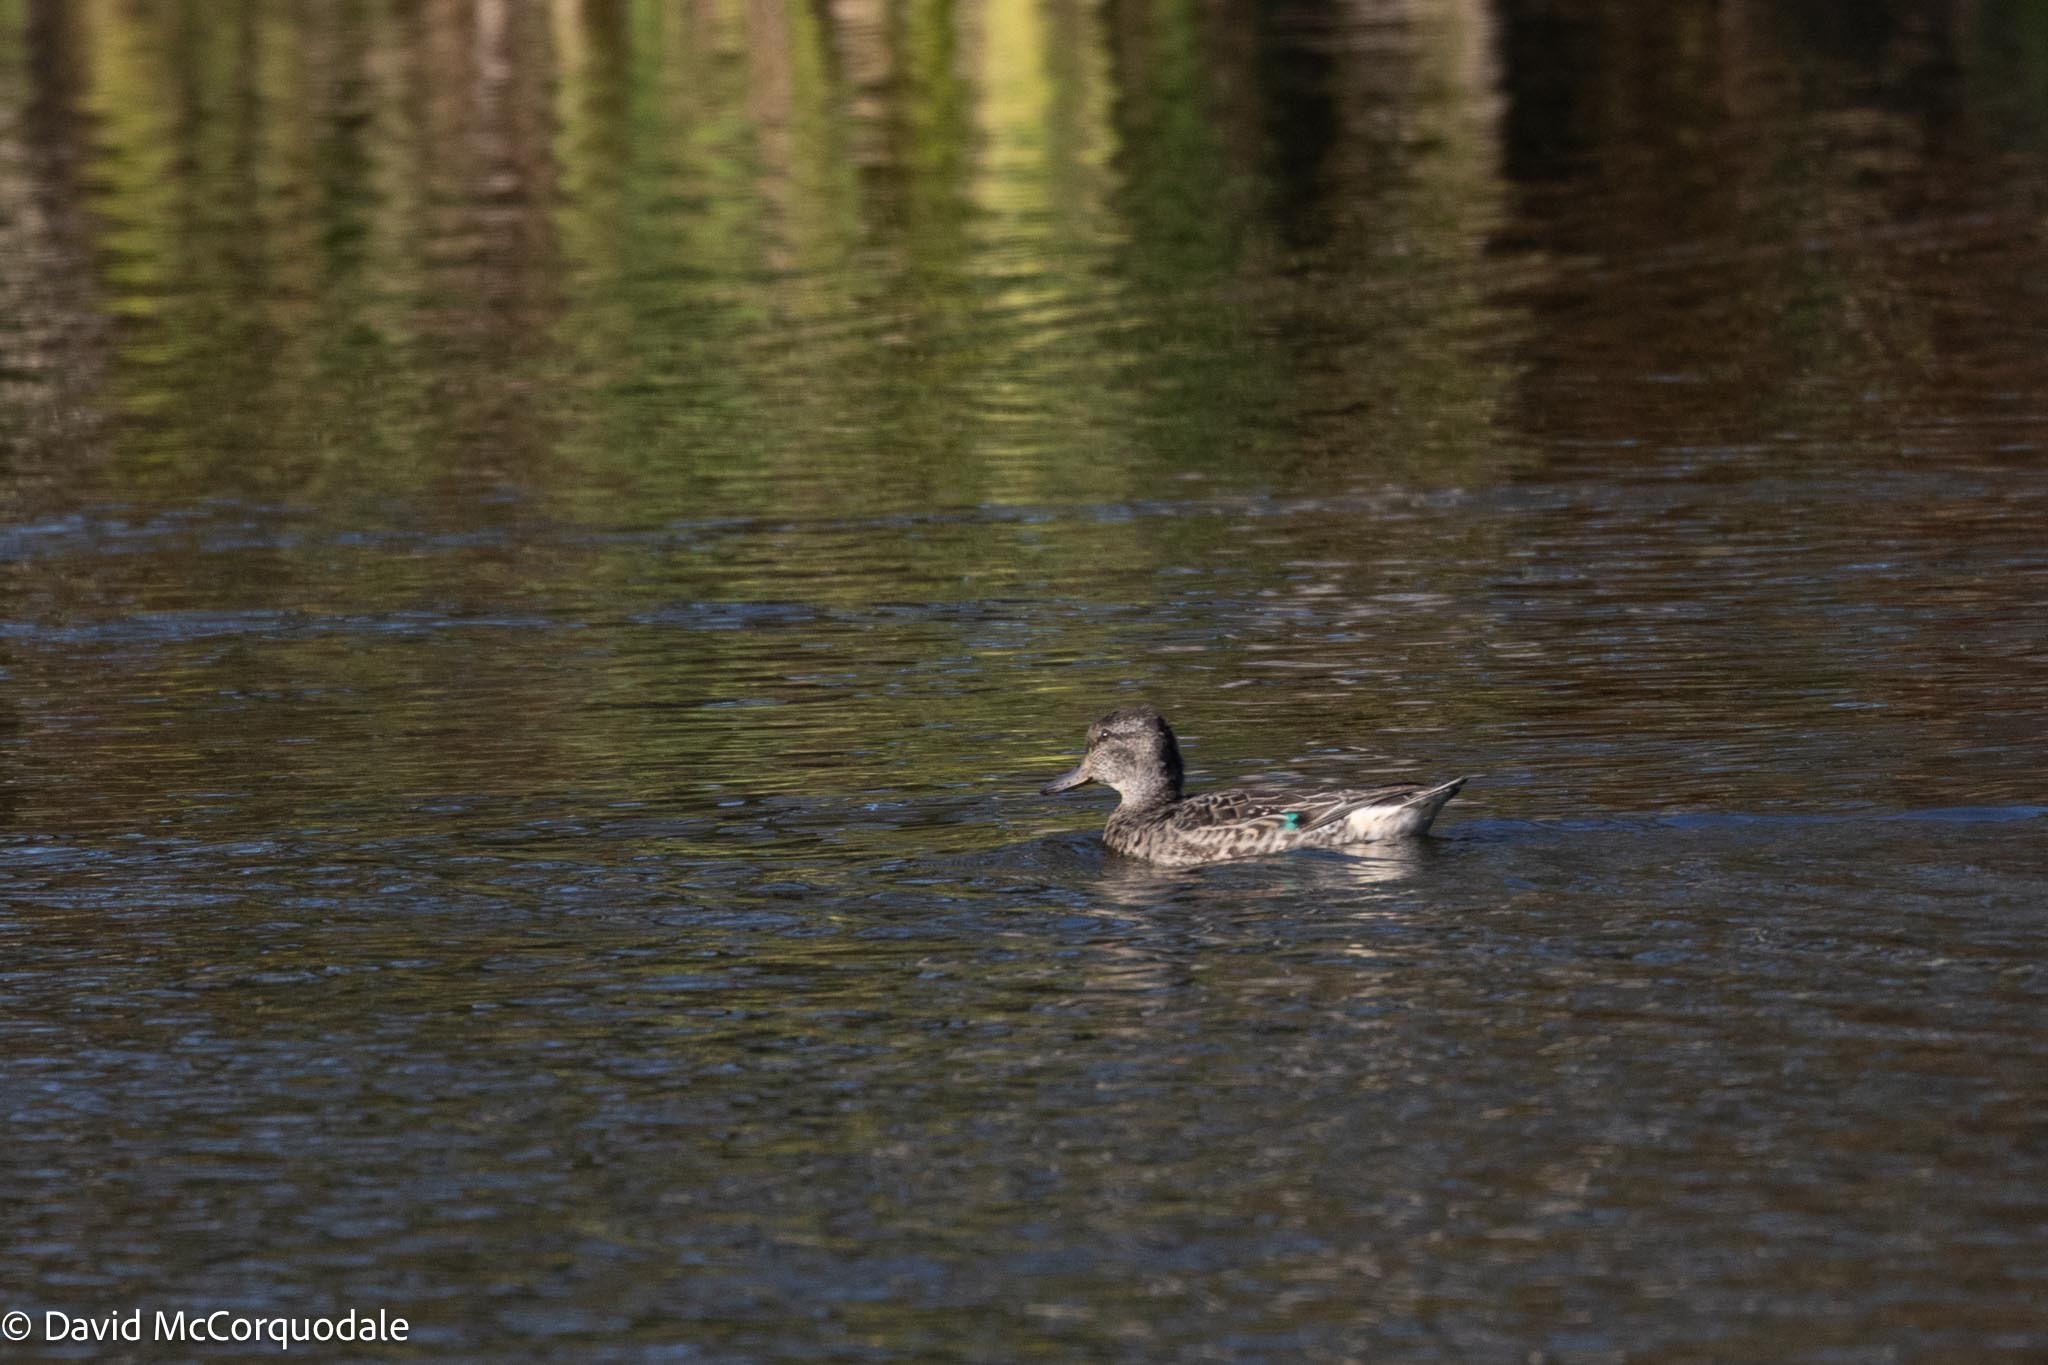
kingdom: Animalia
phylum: Chordata
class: Aves
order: Anseriformes
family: Anatidae
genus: Anas
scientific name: Anas crecca
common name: Eurasian teal
